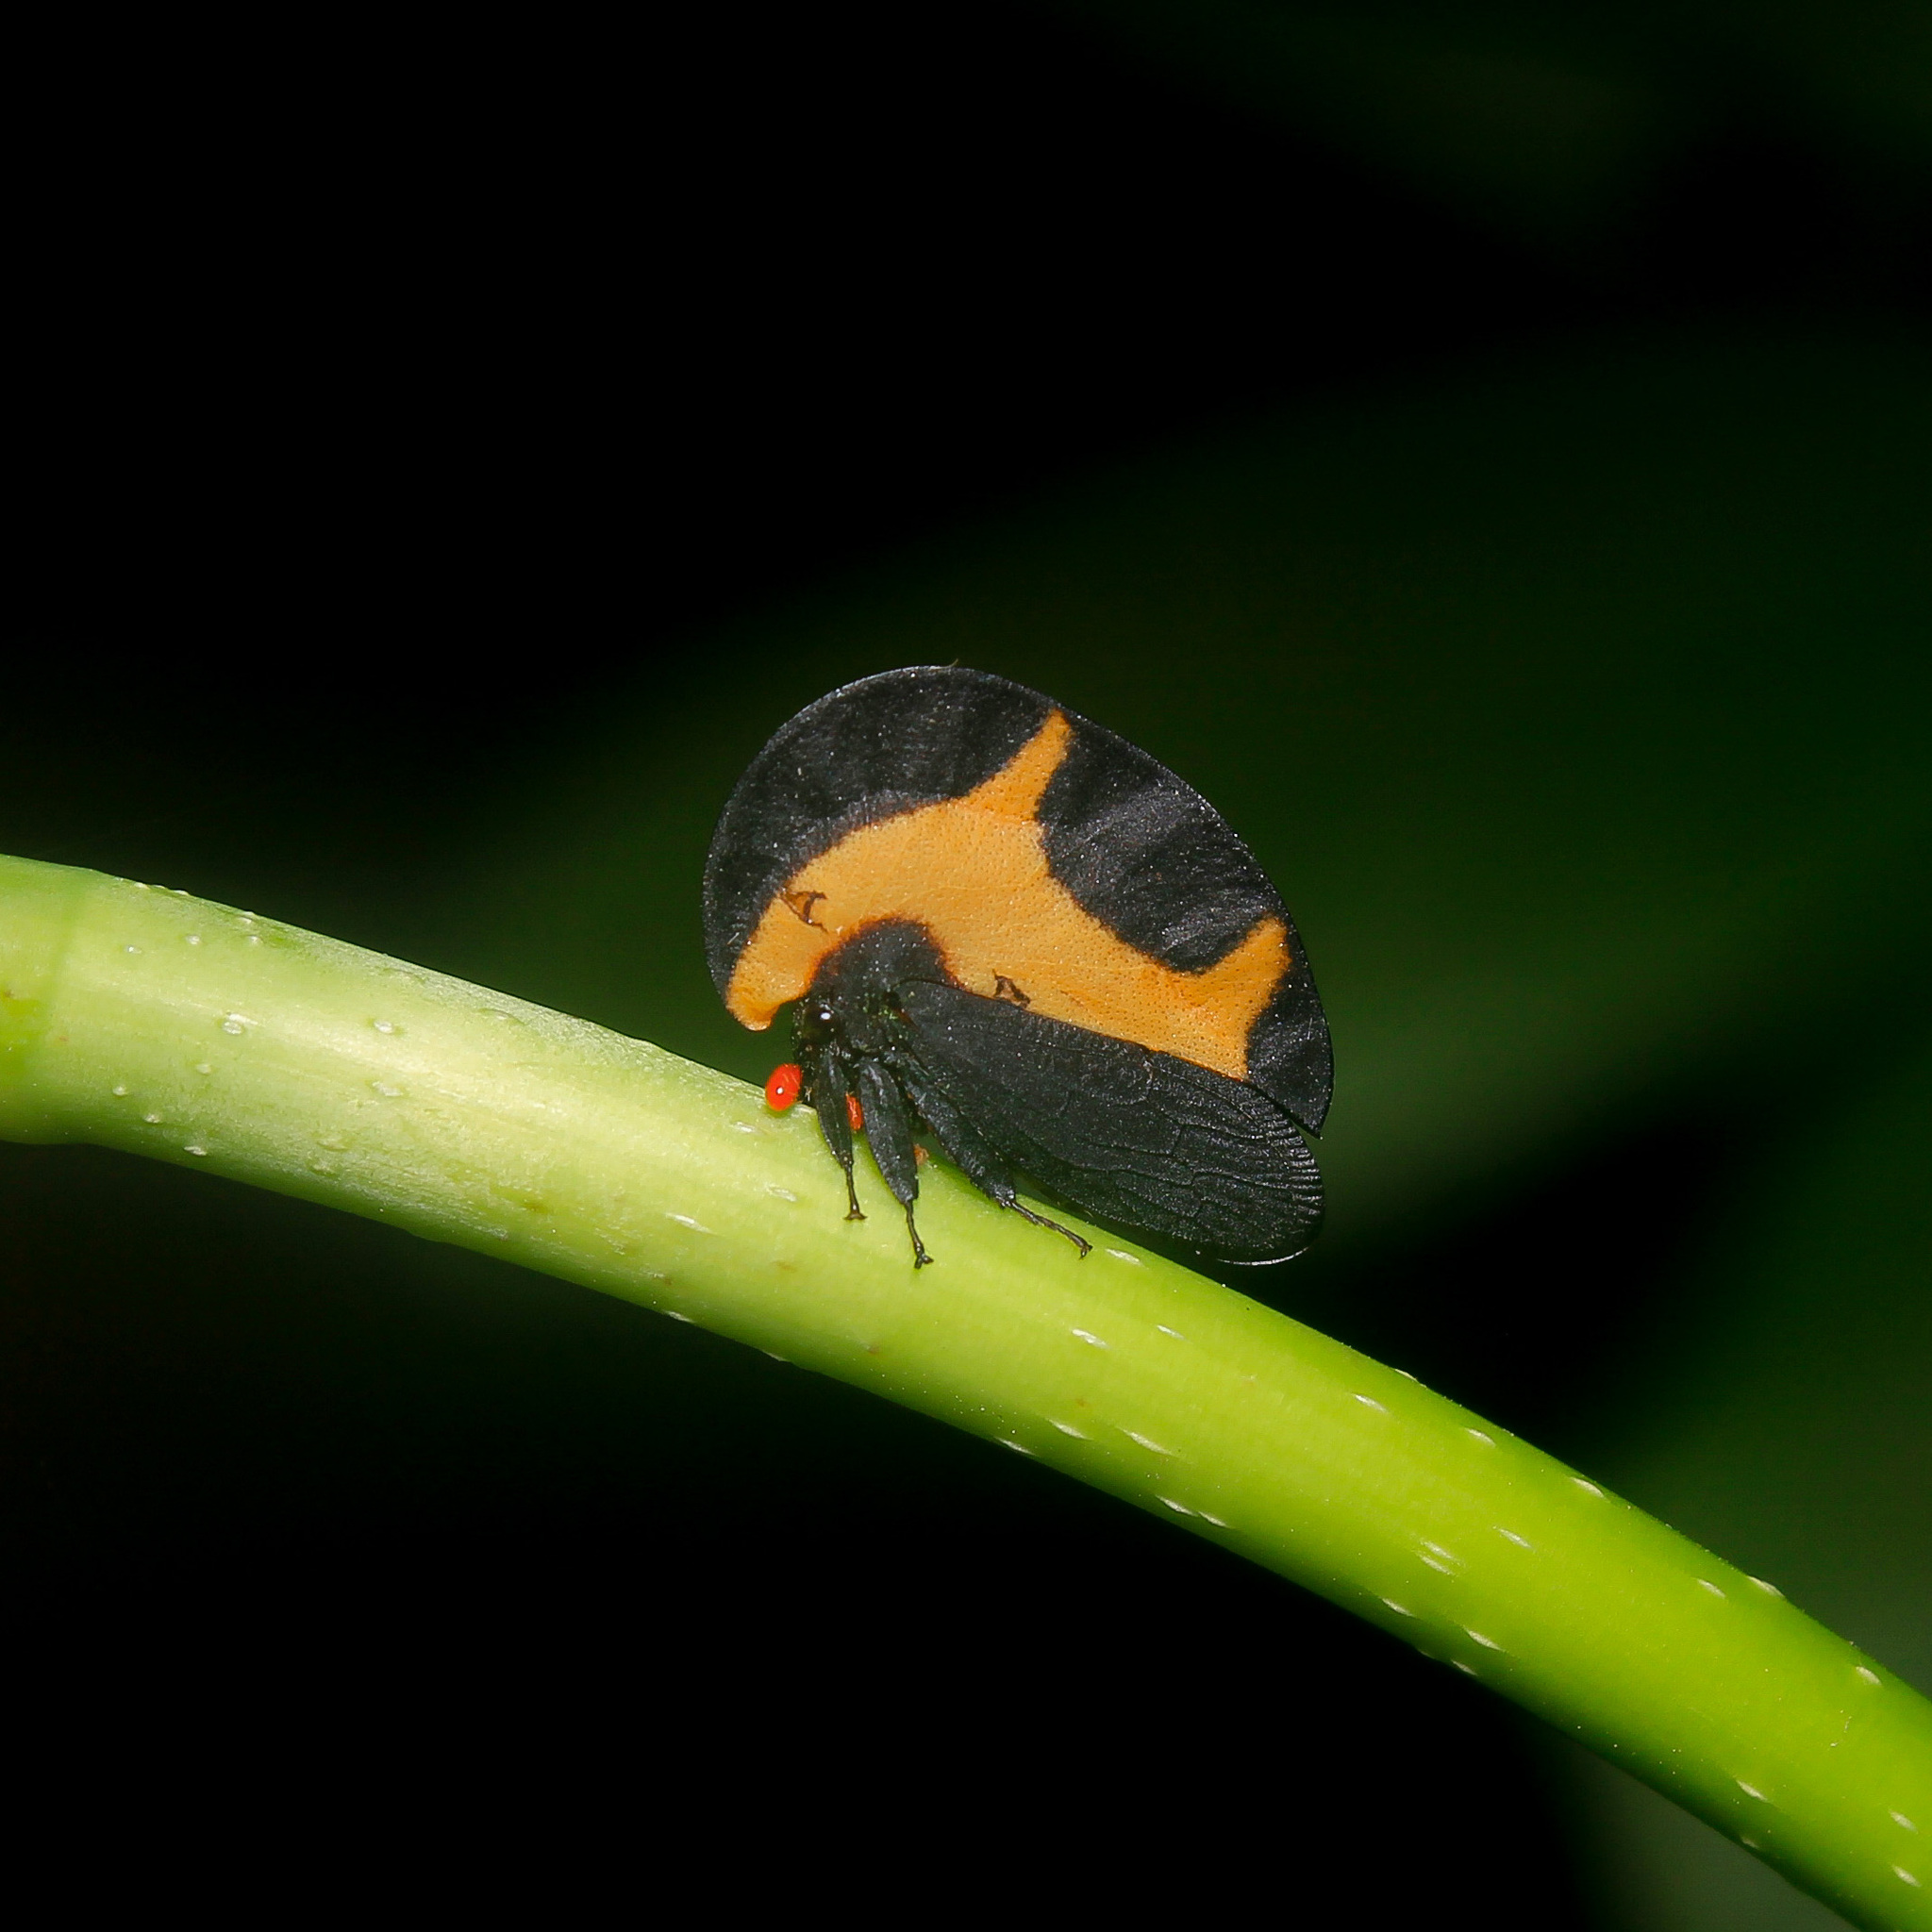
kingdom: Animalia
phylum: Arthropoda
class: Insecta
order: Hemiptera
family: Membracidae
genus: Membracis
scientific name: Membracis trimaculata
